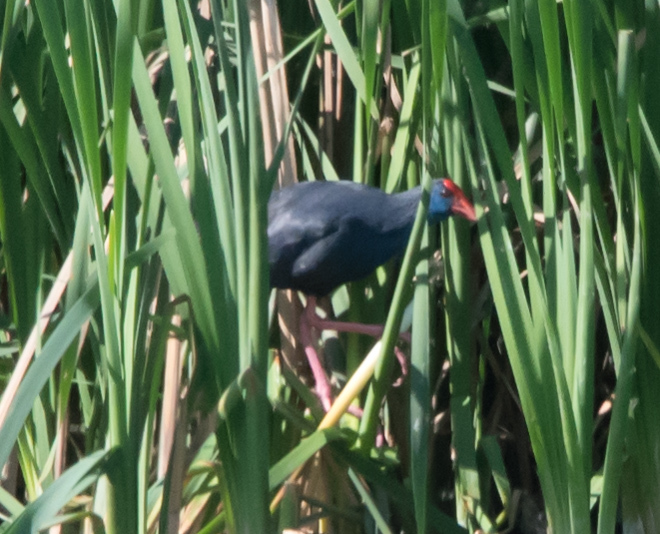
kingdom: Animalia
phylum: Chordata
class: Aves
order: Gruiformes
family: Rallidae
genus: Porphyrio
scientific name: Porphyrio porphyrio
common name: Purple swamphen
